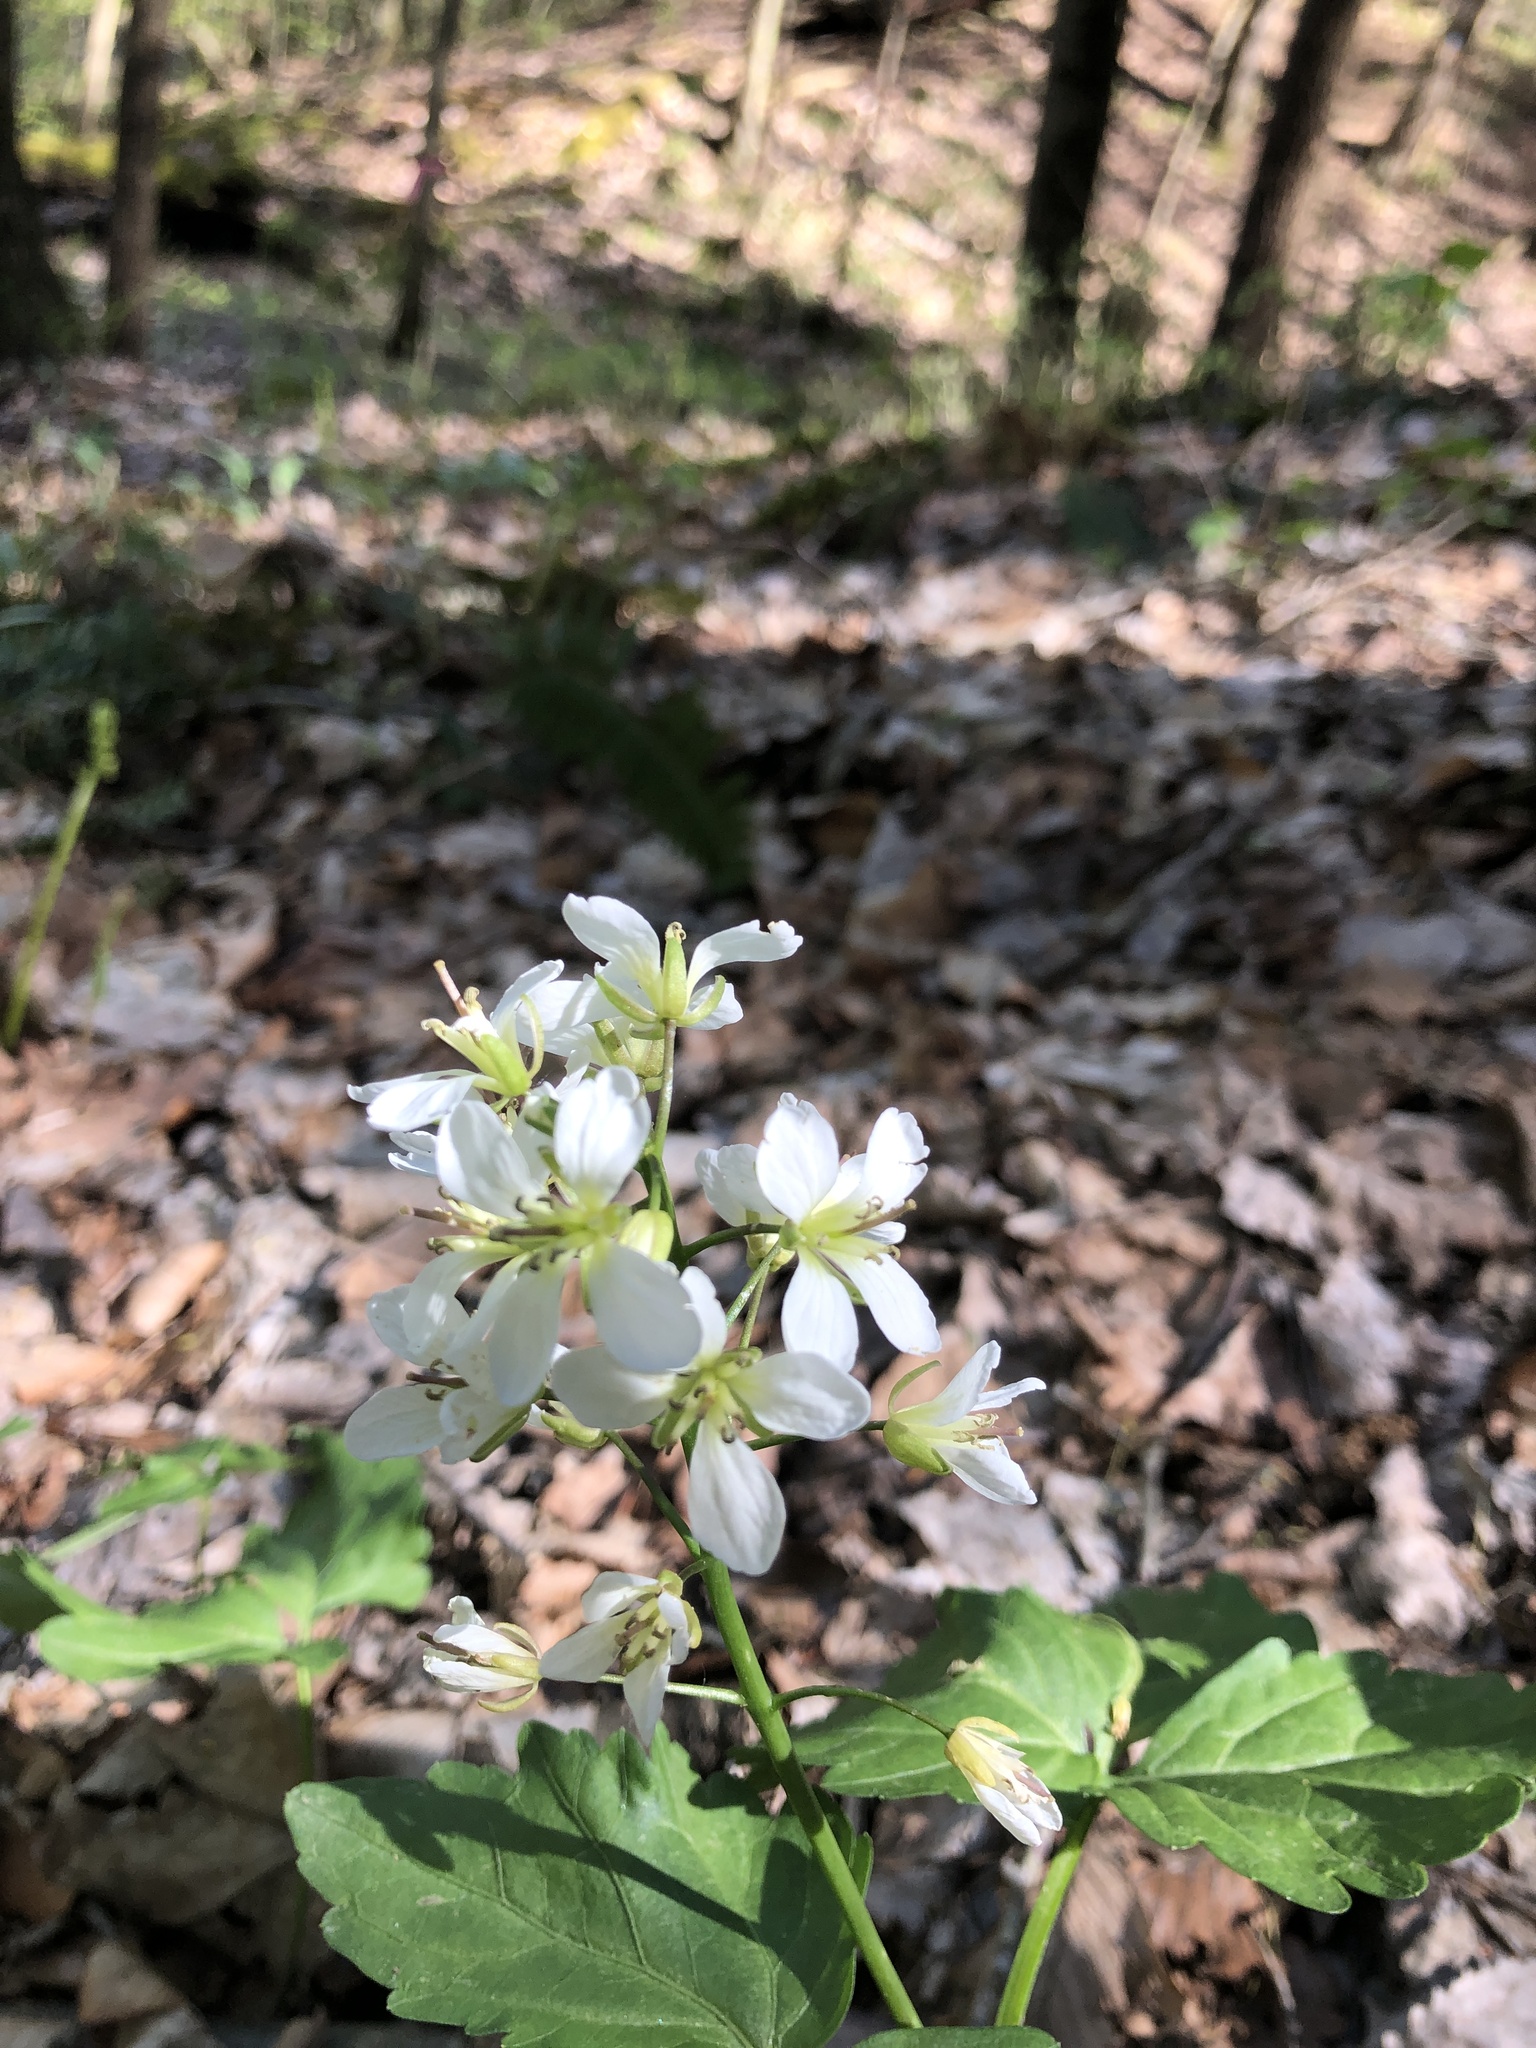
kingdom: Plantae
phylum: Tracheophyta
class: Magnoliopsida
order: Brassicales
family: Brassicaceae
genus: Cardamine
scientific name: Cardamine diphylla
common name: Broad-leaved toothwort
